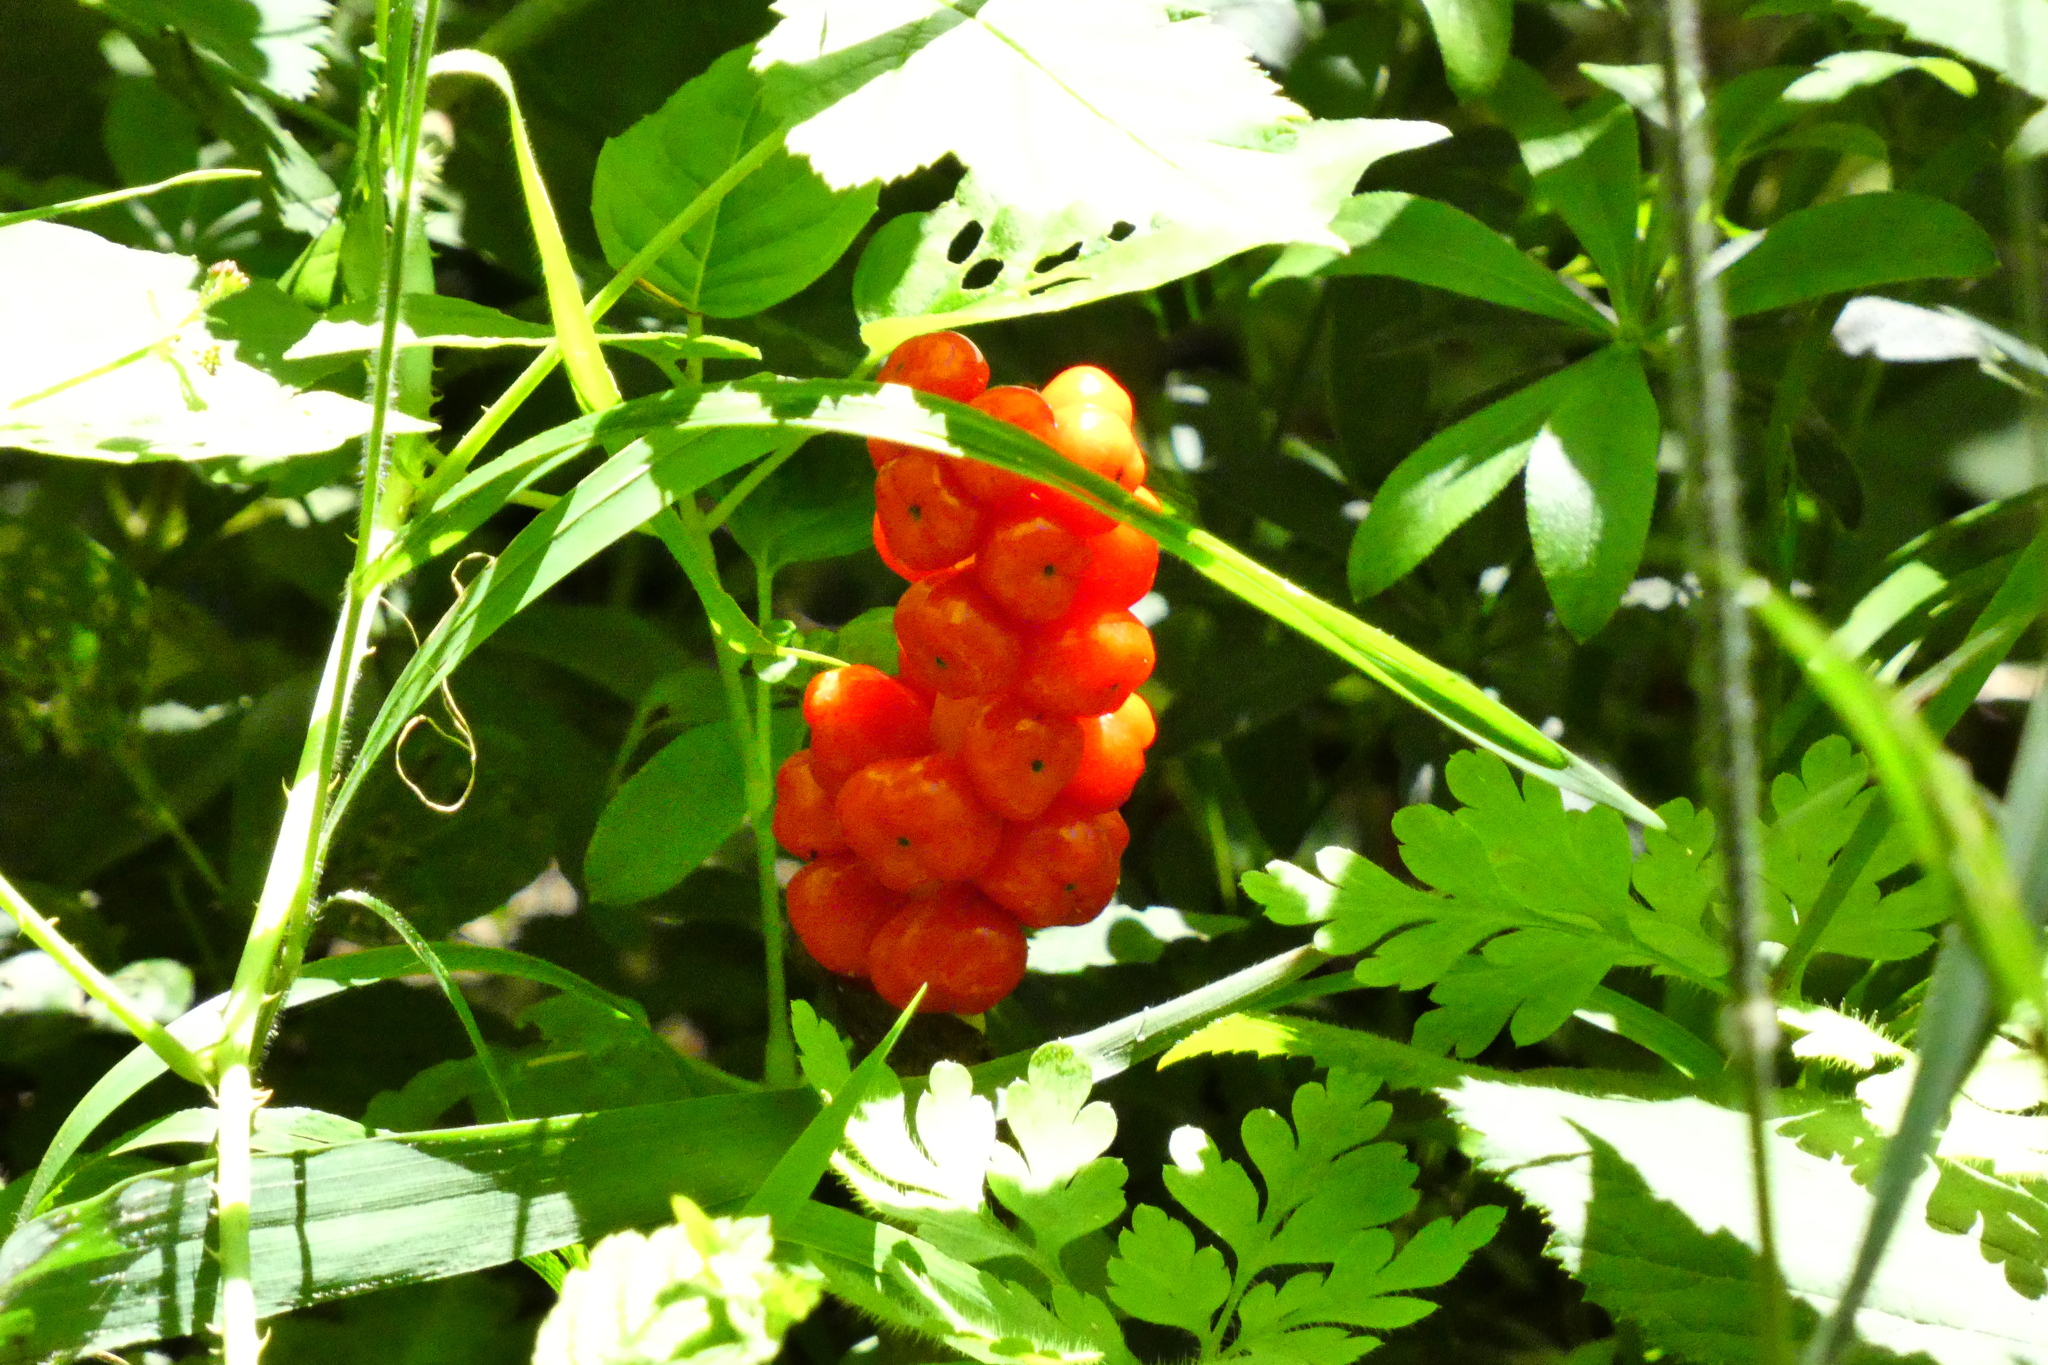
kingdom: Plantae
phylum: Tracheophyta
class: Liliopsida
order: Alismatales
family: Araceae
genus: Arum
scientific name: Arum maculatum
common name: Lords-and-ladies
